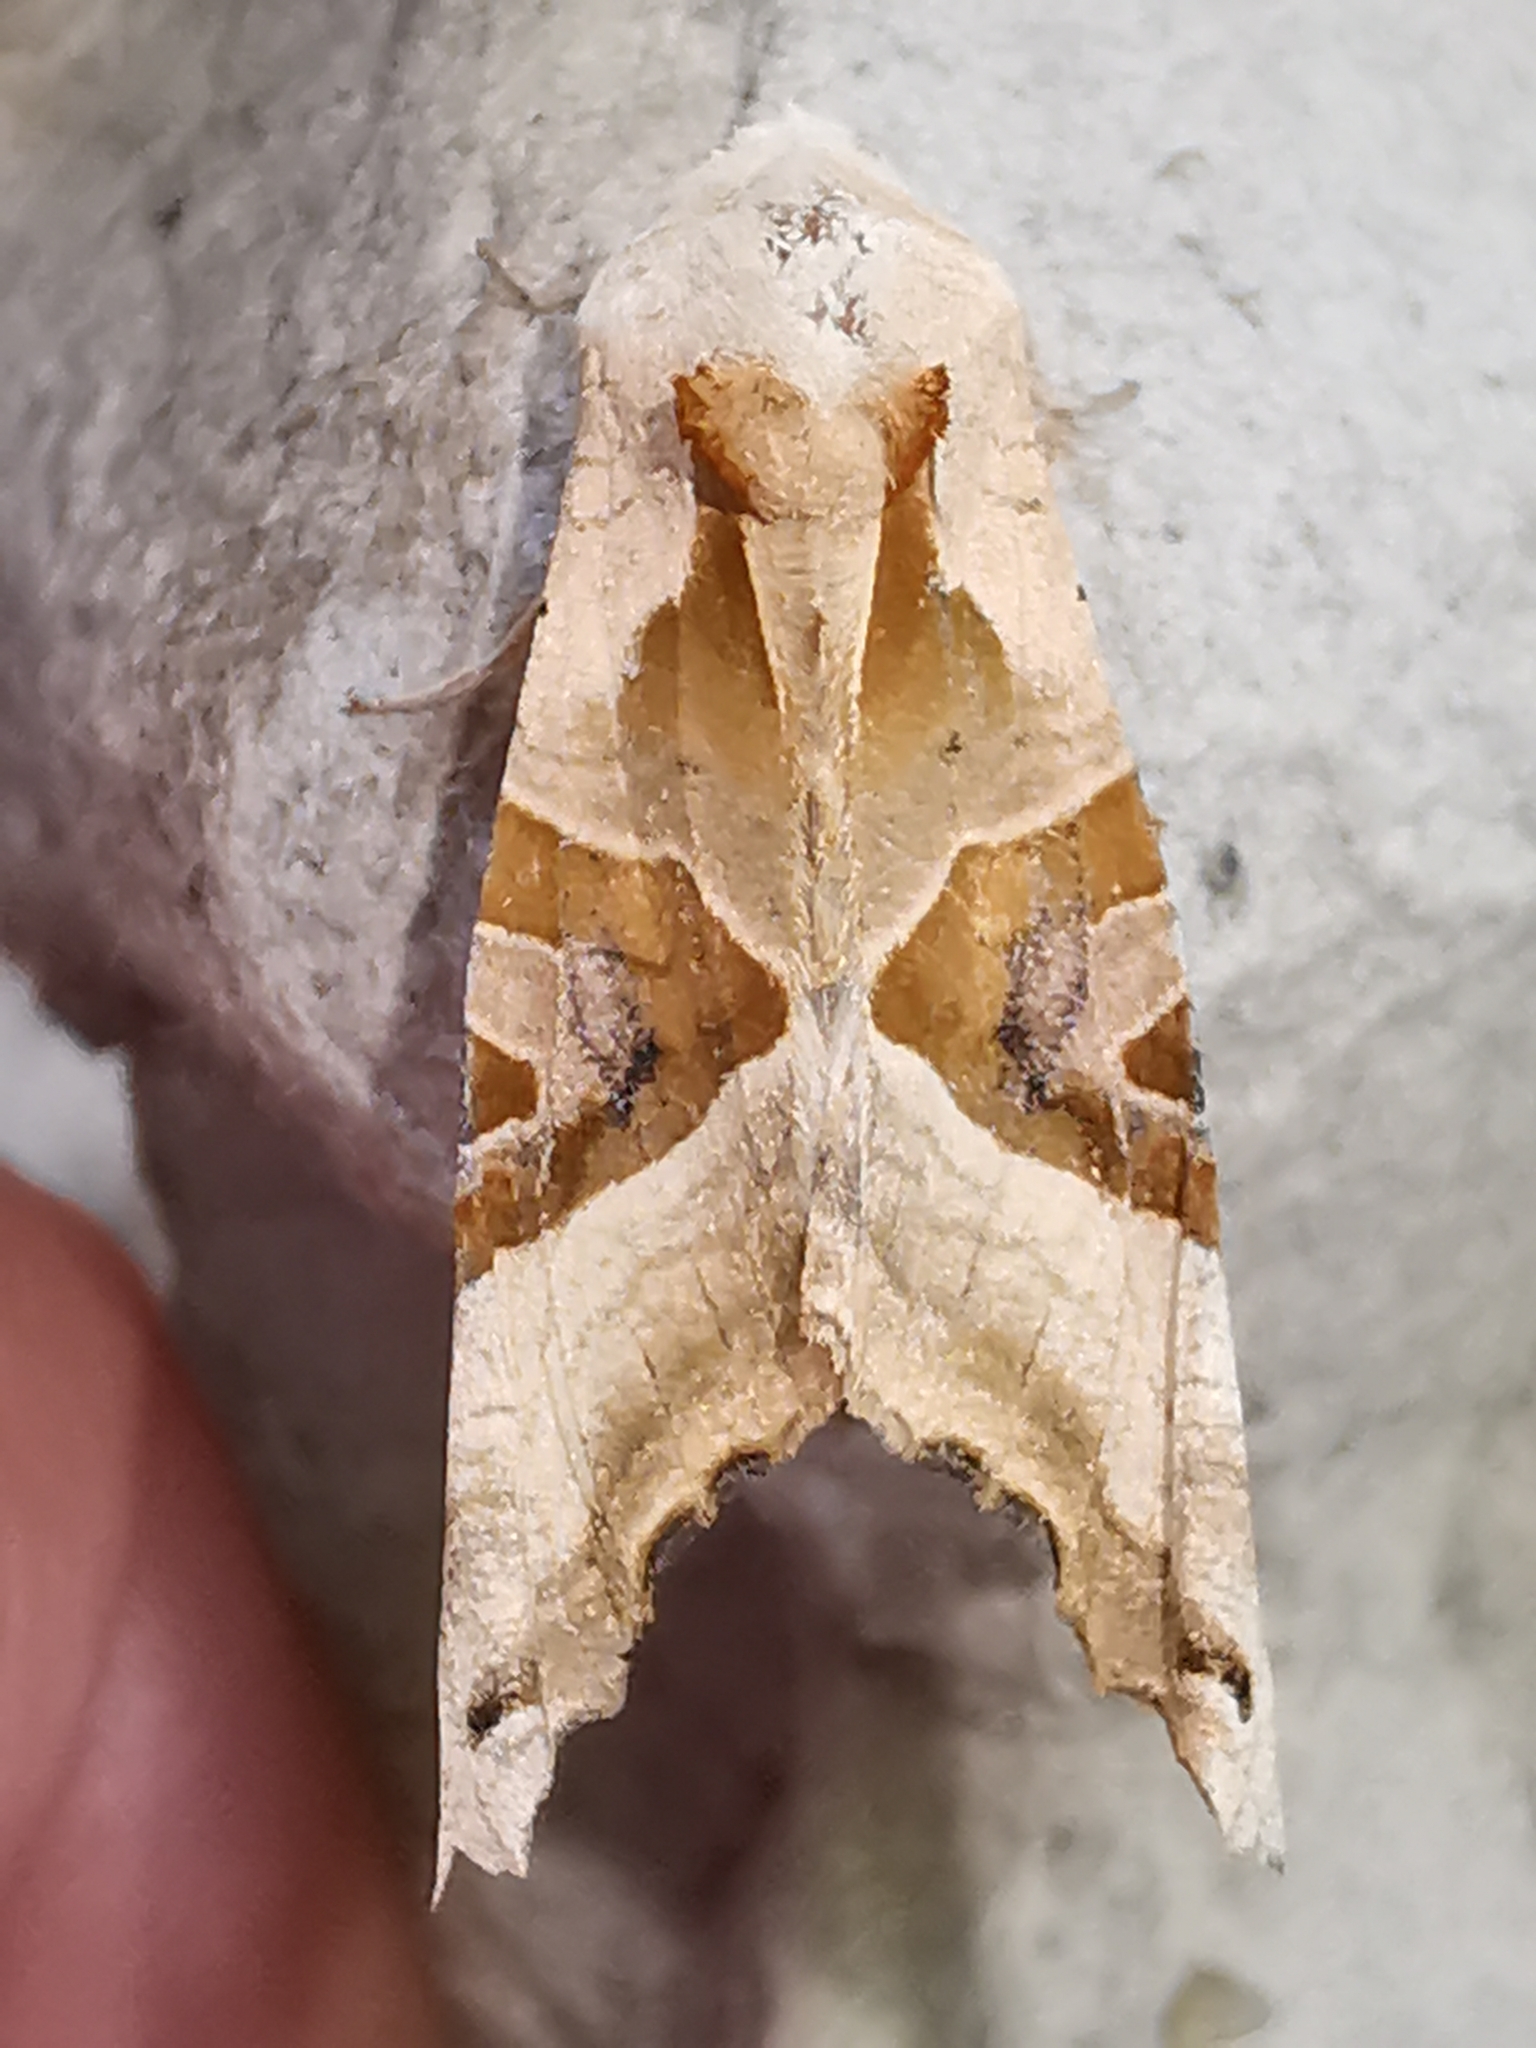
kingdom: Animalia
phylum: Arthropoda
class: Insecta
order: Lepidoptera
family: Noctuidae
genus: Phlogophora
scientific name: Phlogophora meticulosa
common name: Angle shades
